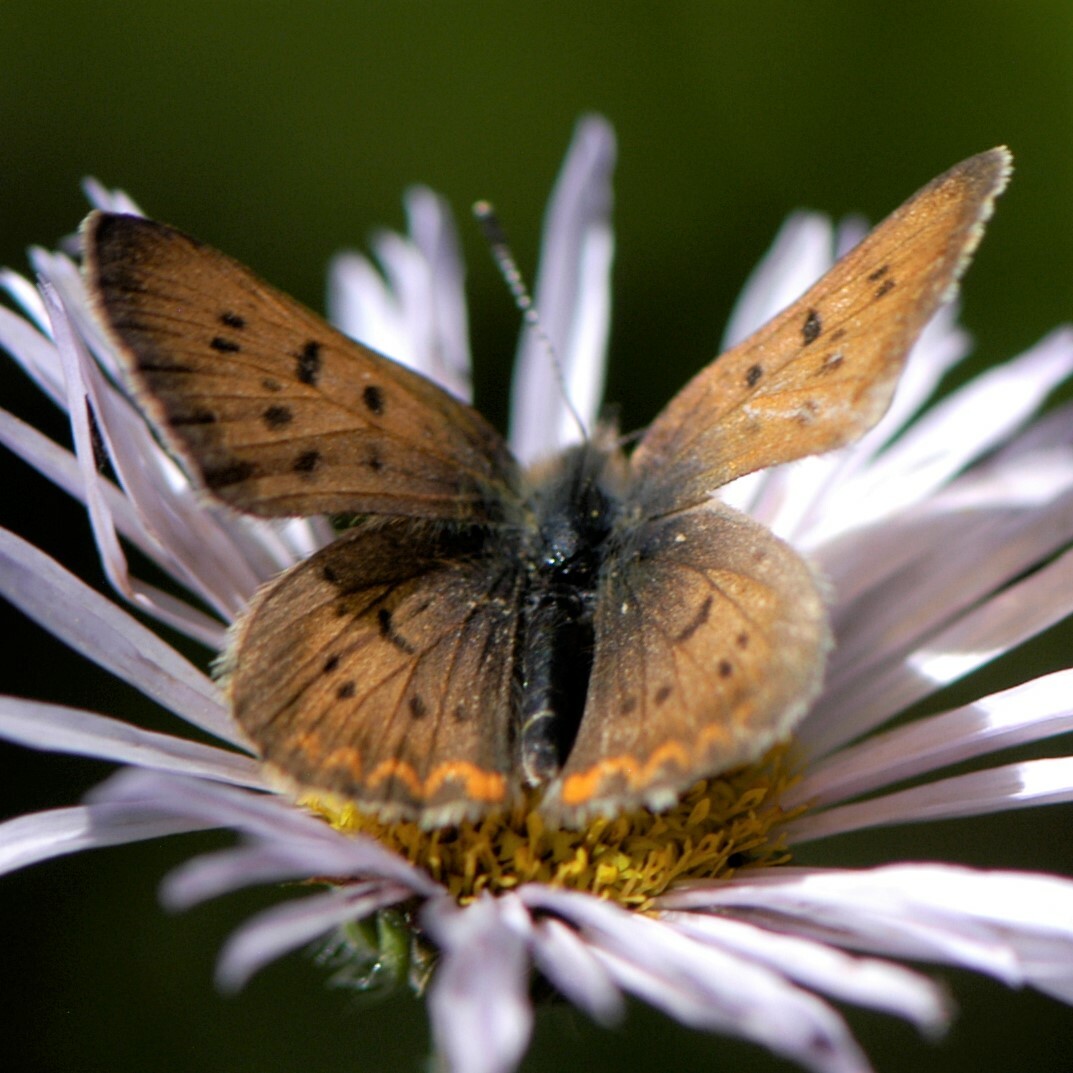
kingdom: Animalia
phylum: Arthropoda
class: Insecta
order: Lepidoptera
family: Lycaenidae
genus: Tharsalea
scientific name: Tharsalea dorcas
